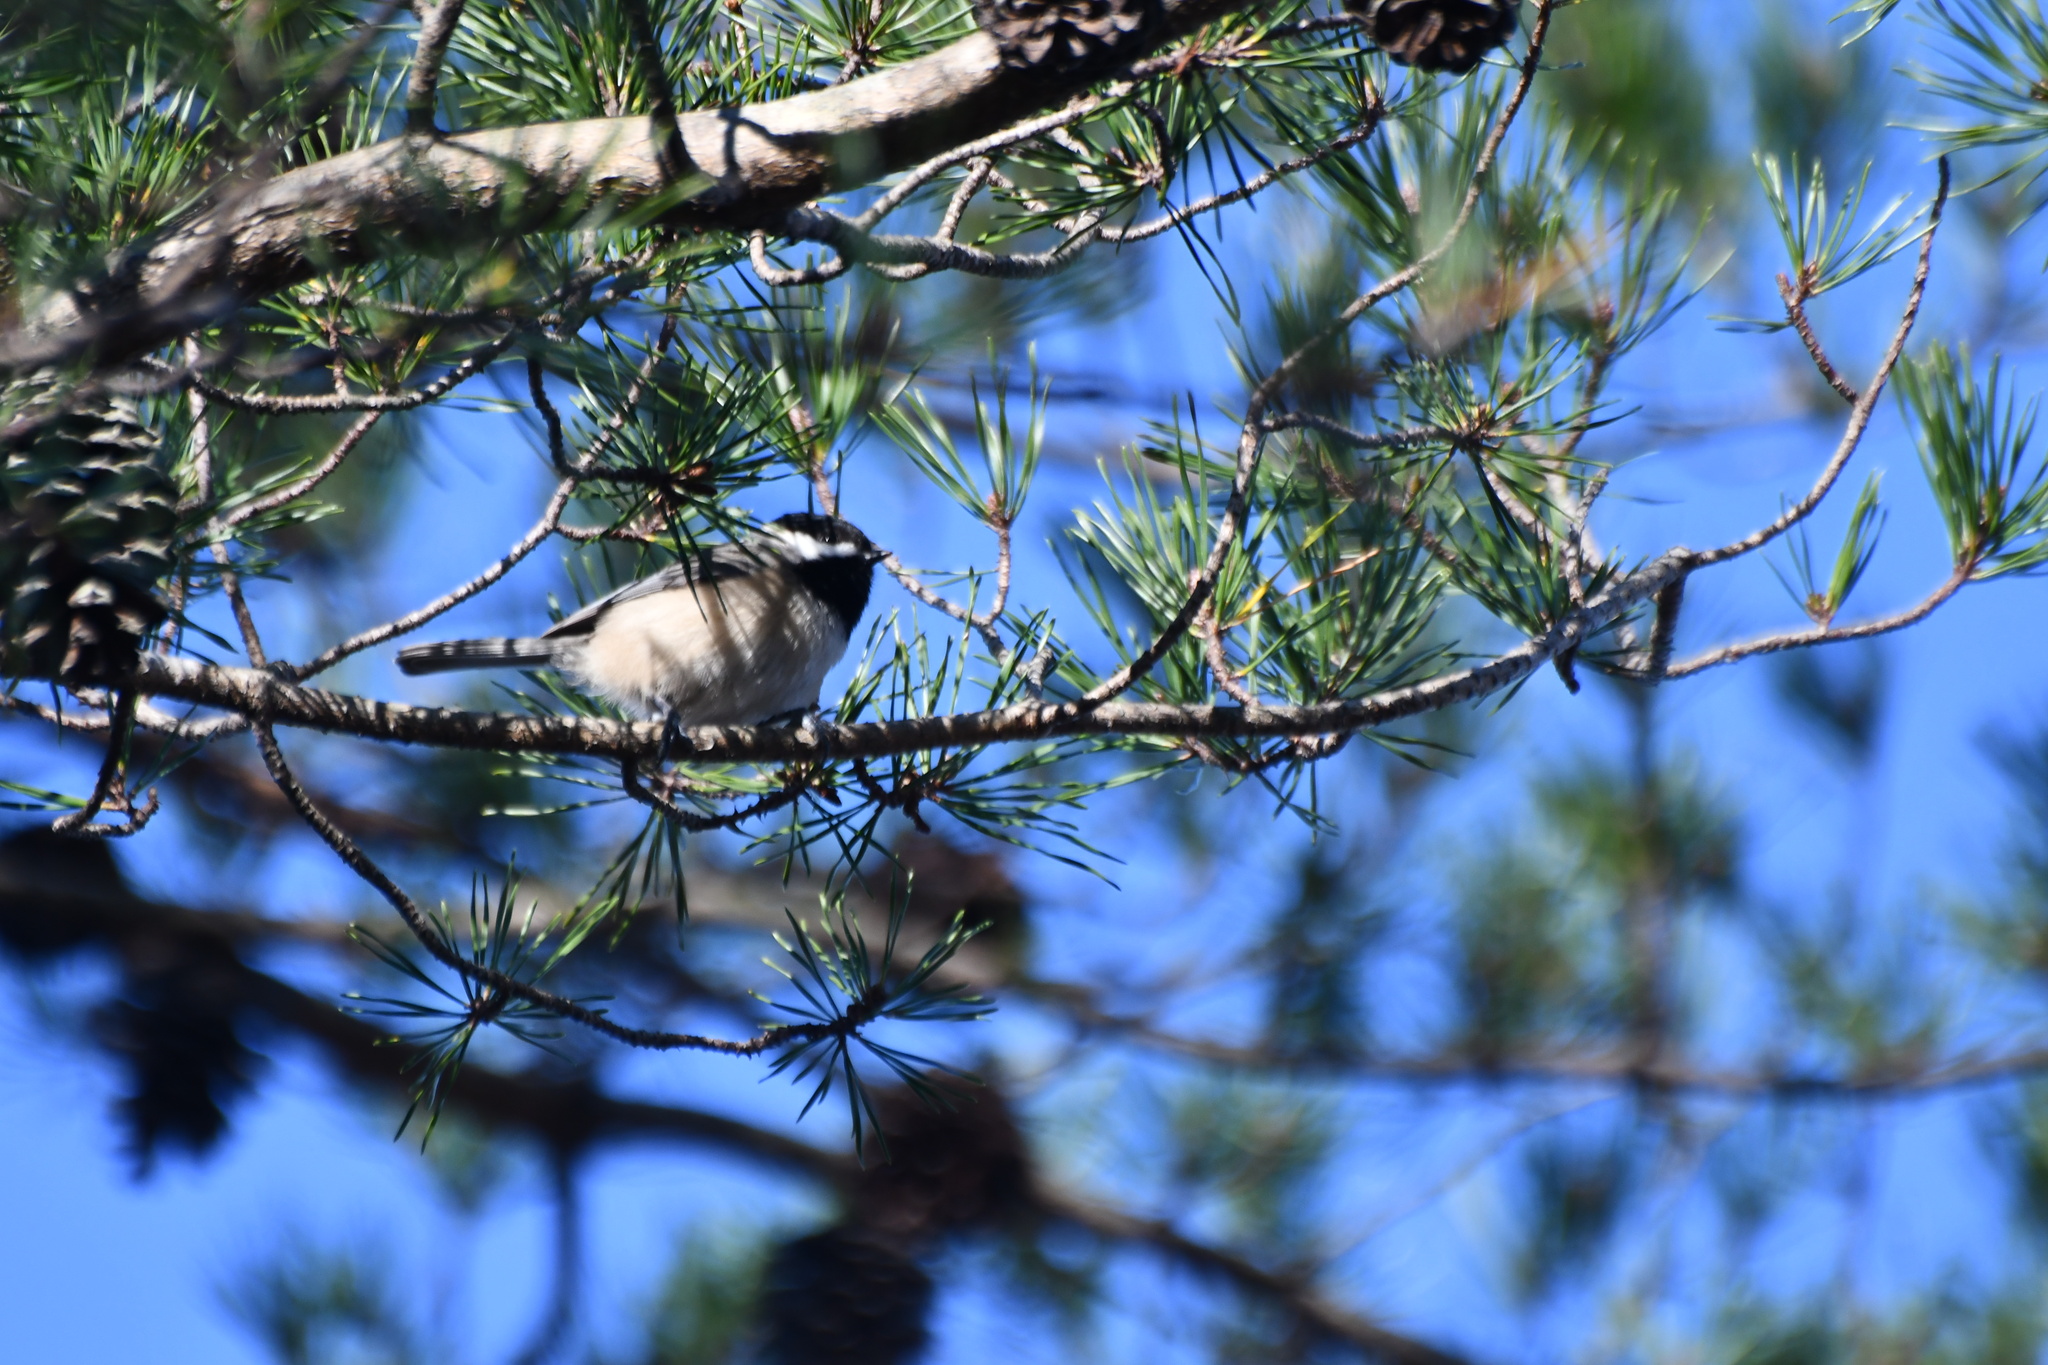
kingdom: Animalia
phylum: Chordata
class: Aves
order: Passeriformes
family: Paridae
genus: Poecile
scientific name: Poecile carolinensis
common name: Carolina chickadee
